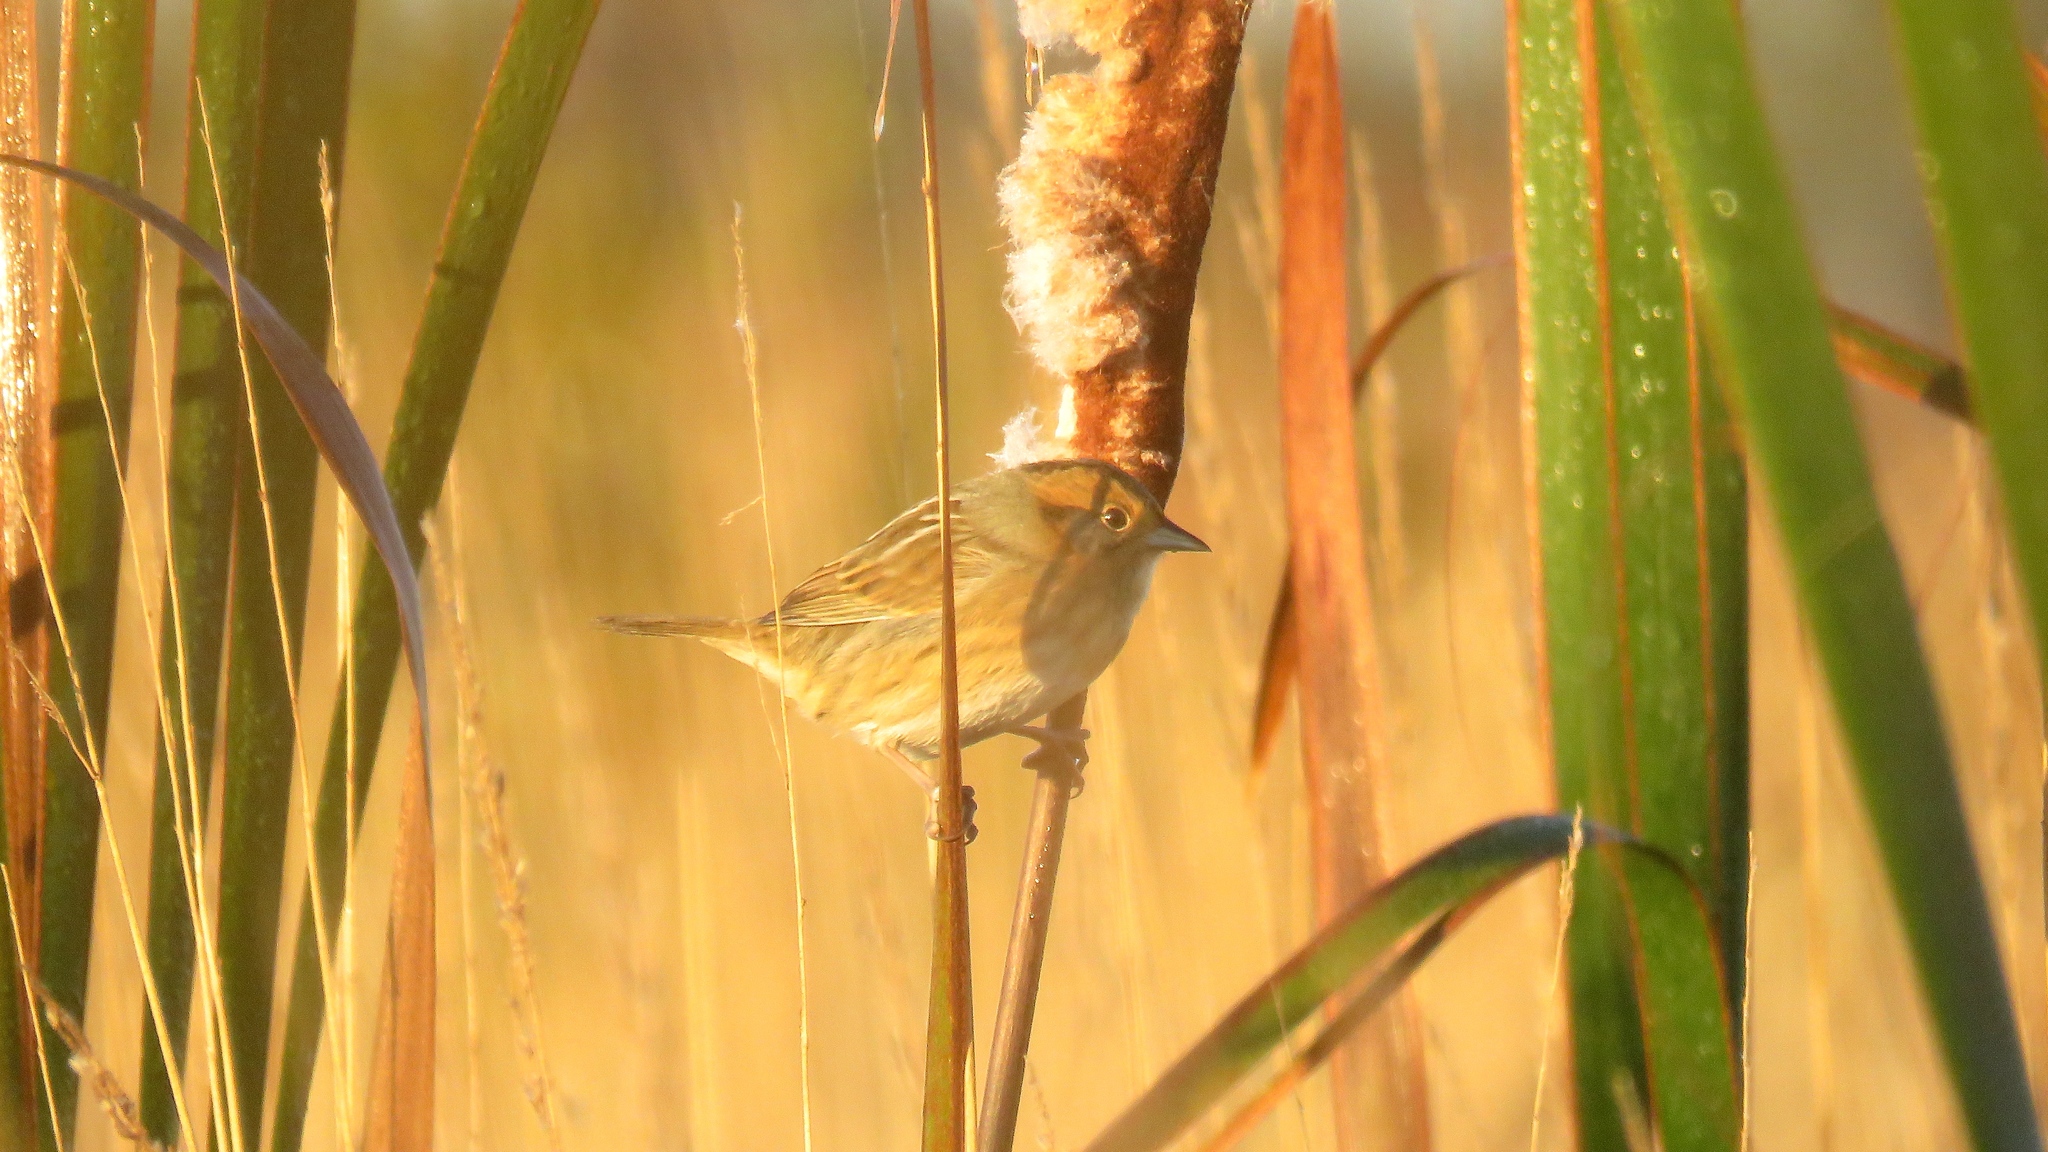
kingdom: Animalia
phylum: Chordata
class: Aves
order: Passeriformes
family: Passerellidae
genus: Ammospiza
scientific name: Ammospiza nelsoni
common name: Nelson's sparrow
